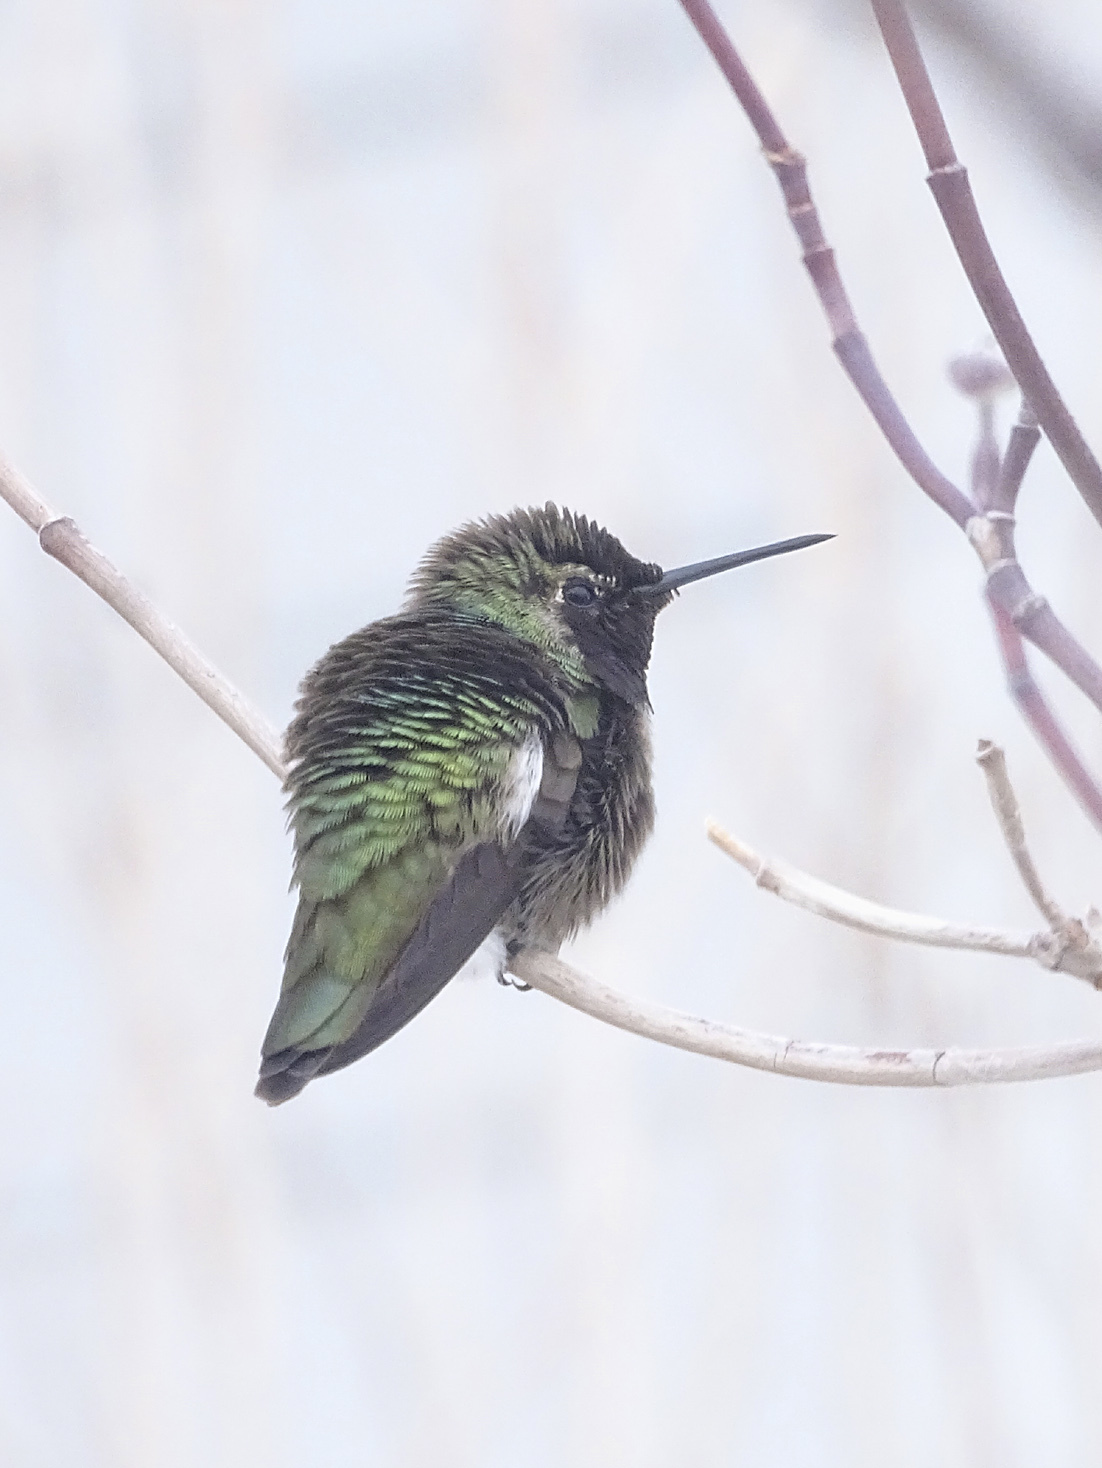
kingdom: Animalia
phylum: Chordata
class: Aves
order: Apodiformes
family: Trochilidae
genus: Calypte
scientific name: Calypte anna
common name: Anna's hummingbird
